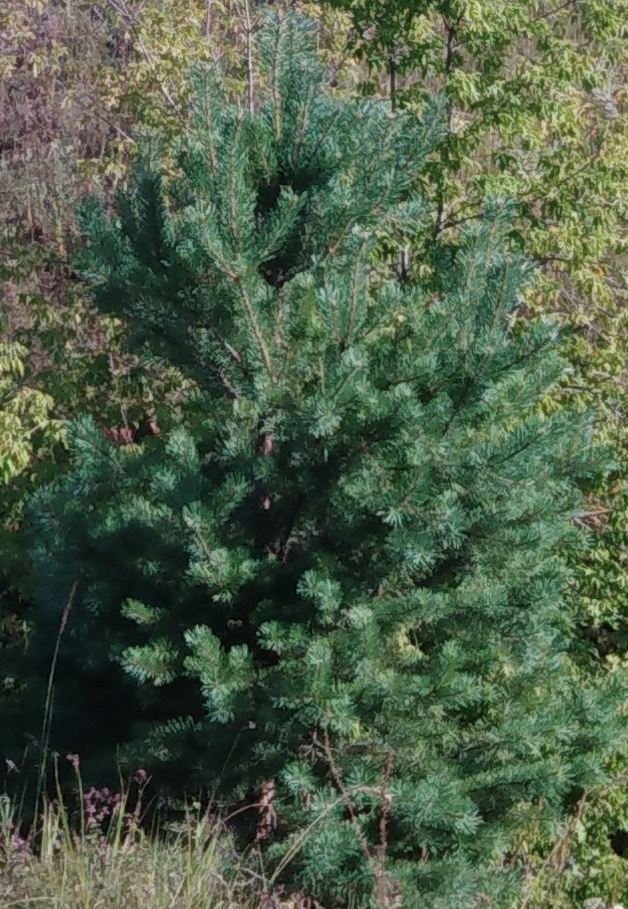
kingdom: Plantae
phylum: Tracheophyta
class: Pinopsida
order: Pinales
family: Pinaceae
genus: Pinus
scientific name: Pinus sylvestris
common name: Scots pine
